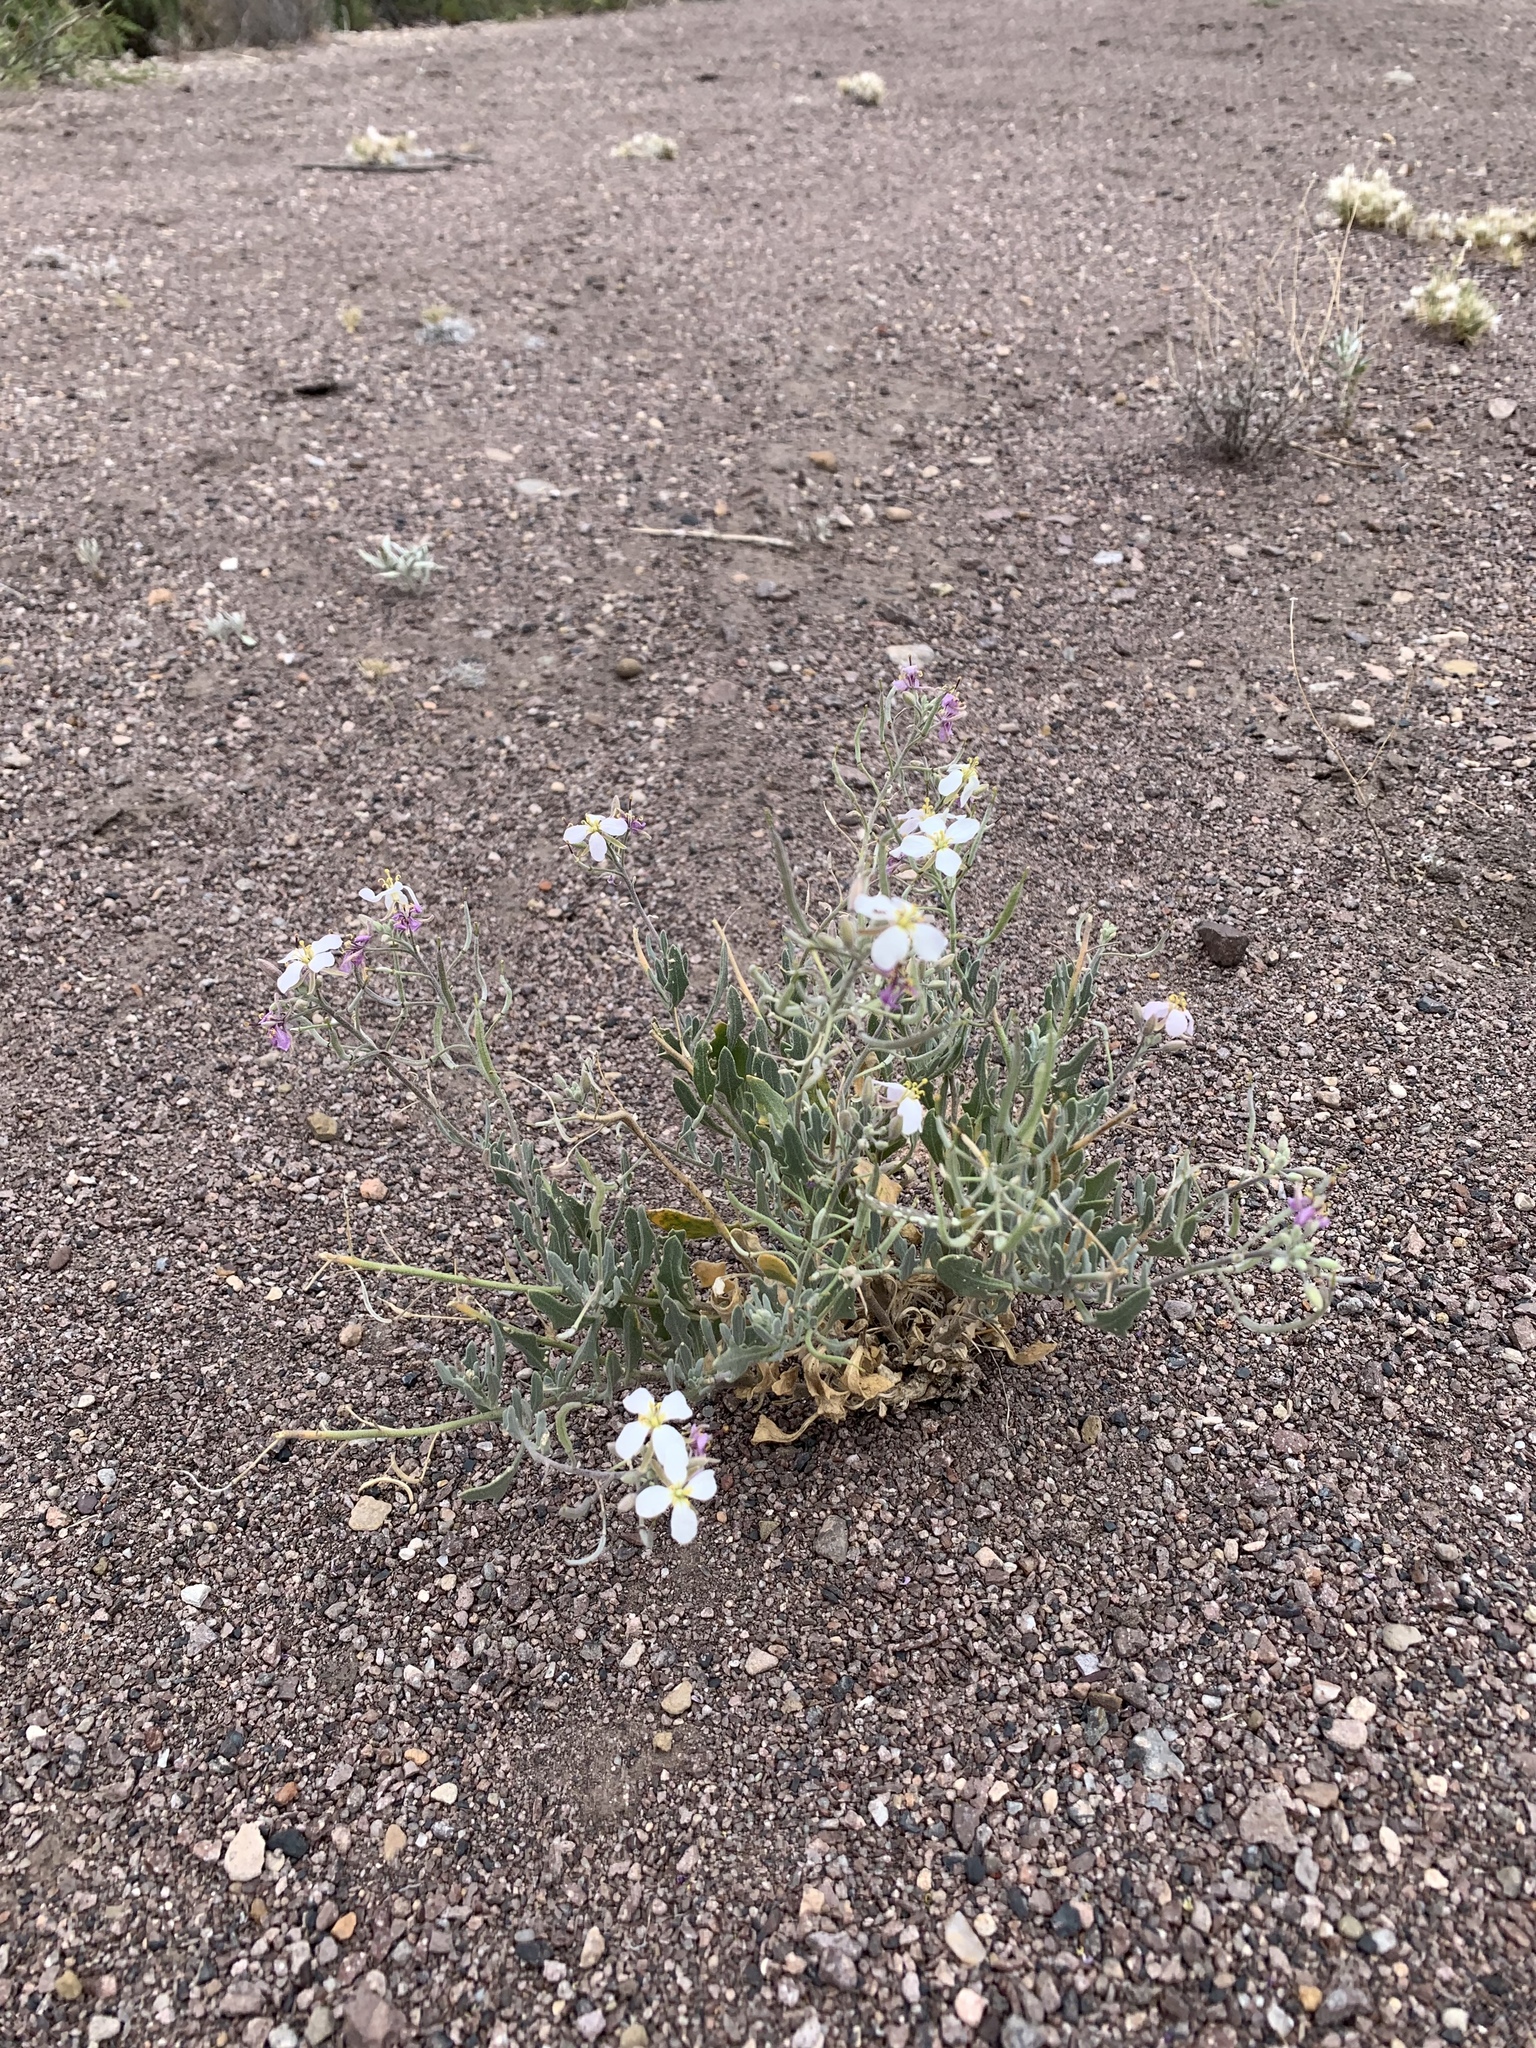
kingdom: Plantae
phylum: Tracheophyta
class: Magnoliopsida
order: Brassicales
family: Brassicaceae
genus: Nerisyrenia
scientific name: Nerisyrenia camporum
